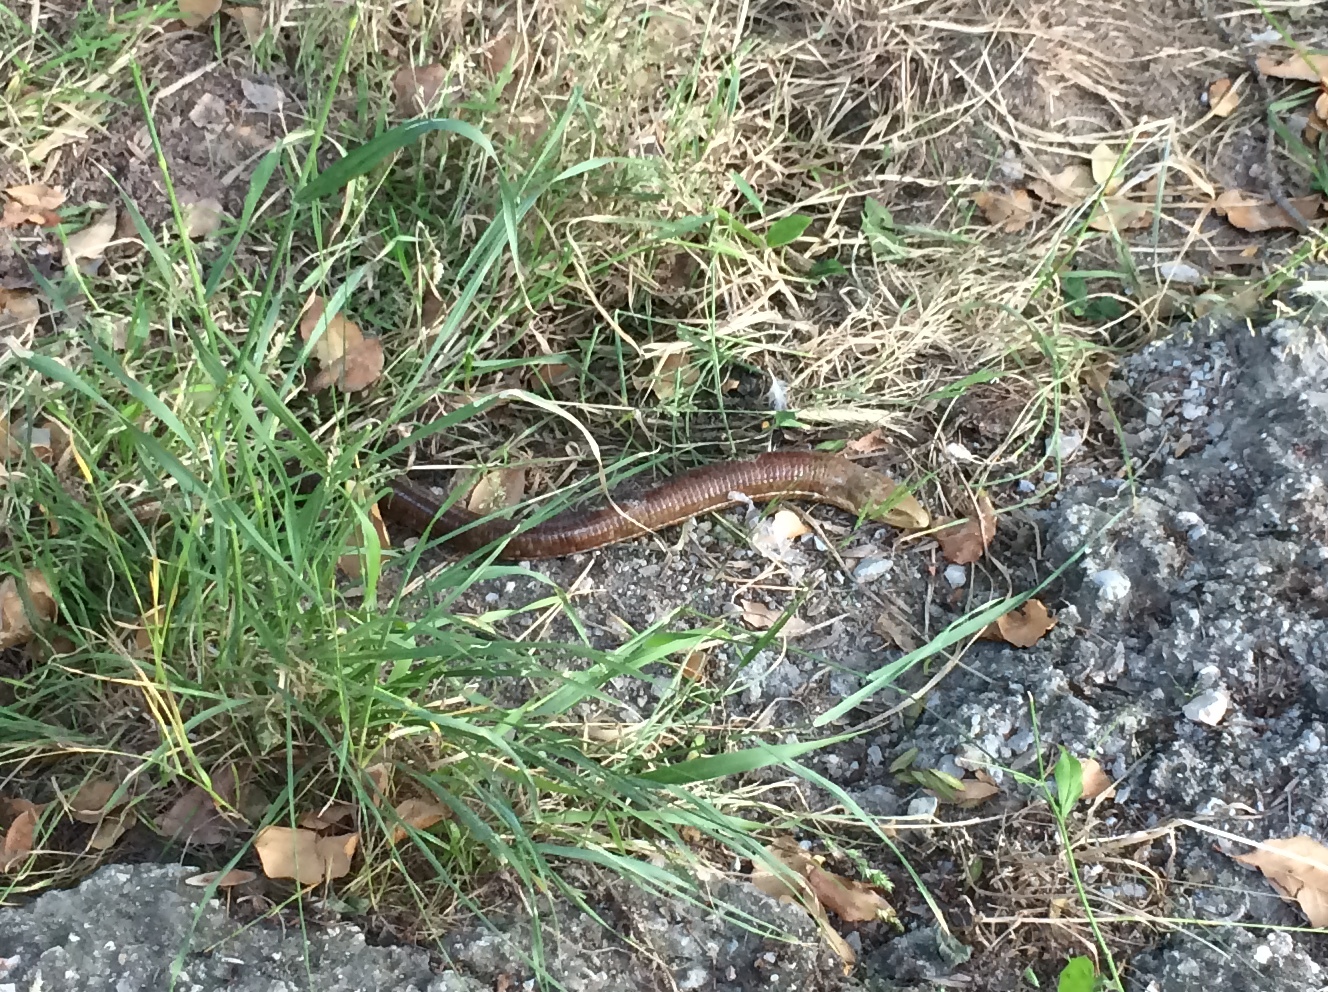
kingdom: Animalia
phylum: Chordata
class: Squamata
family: Anguidae
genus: Pseudopus
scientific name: Pseudopus apodus
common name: European glass lizard
